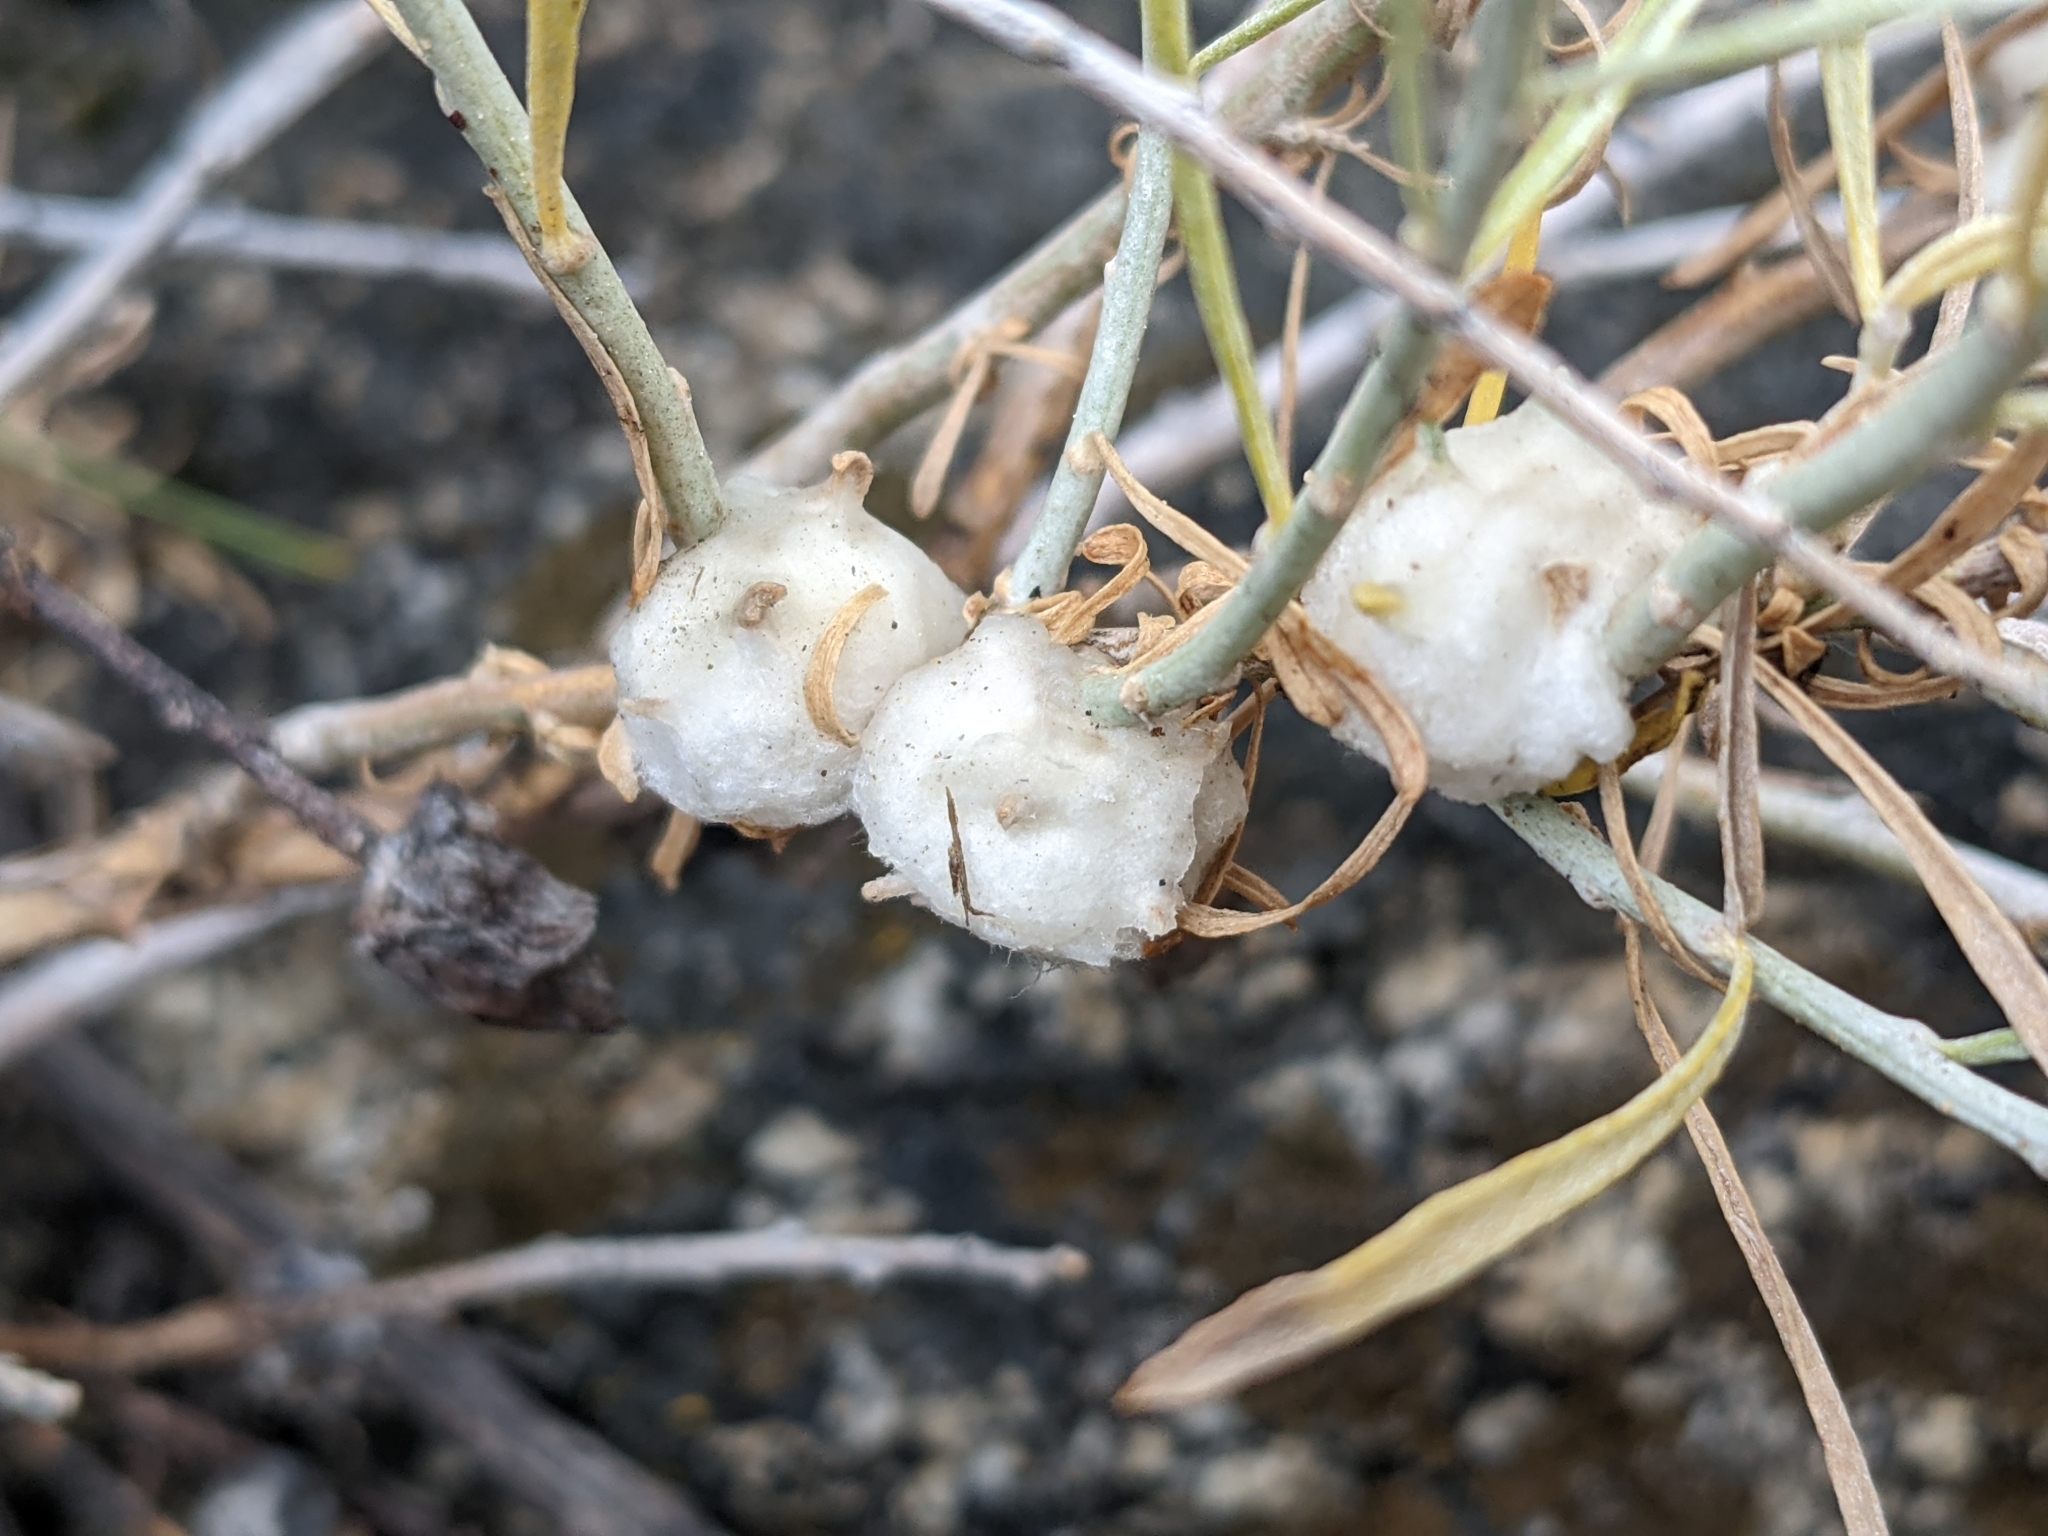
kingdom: Animalia
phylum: Arthropoda
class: Insecta
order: Diptera
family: Tephritidae
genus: Aciurina
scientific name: Aciurina bigeloviae
